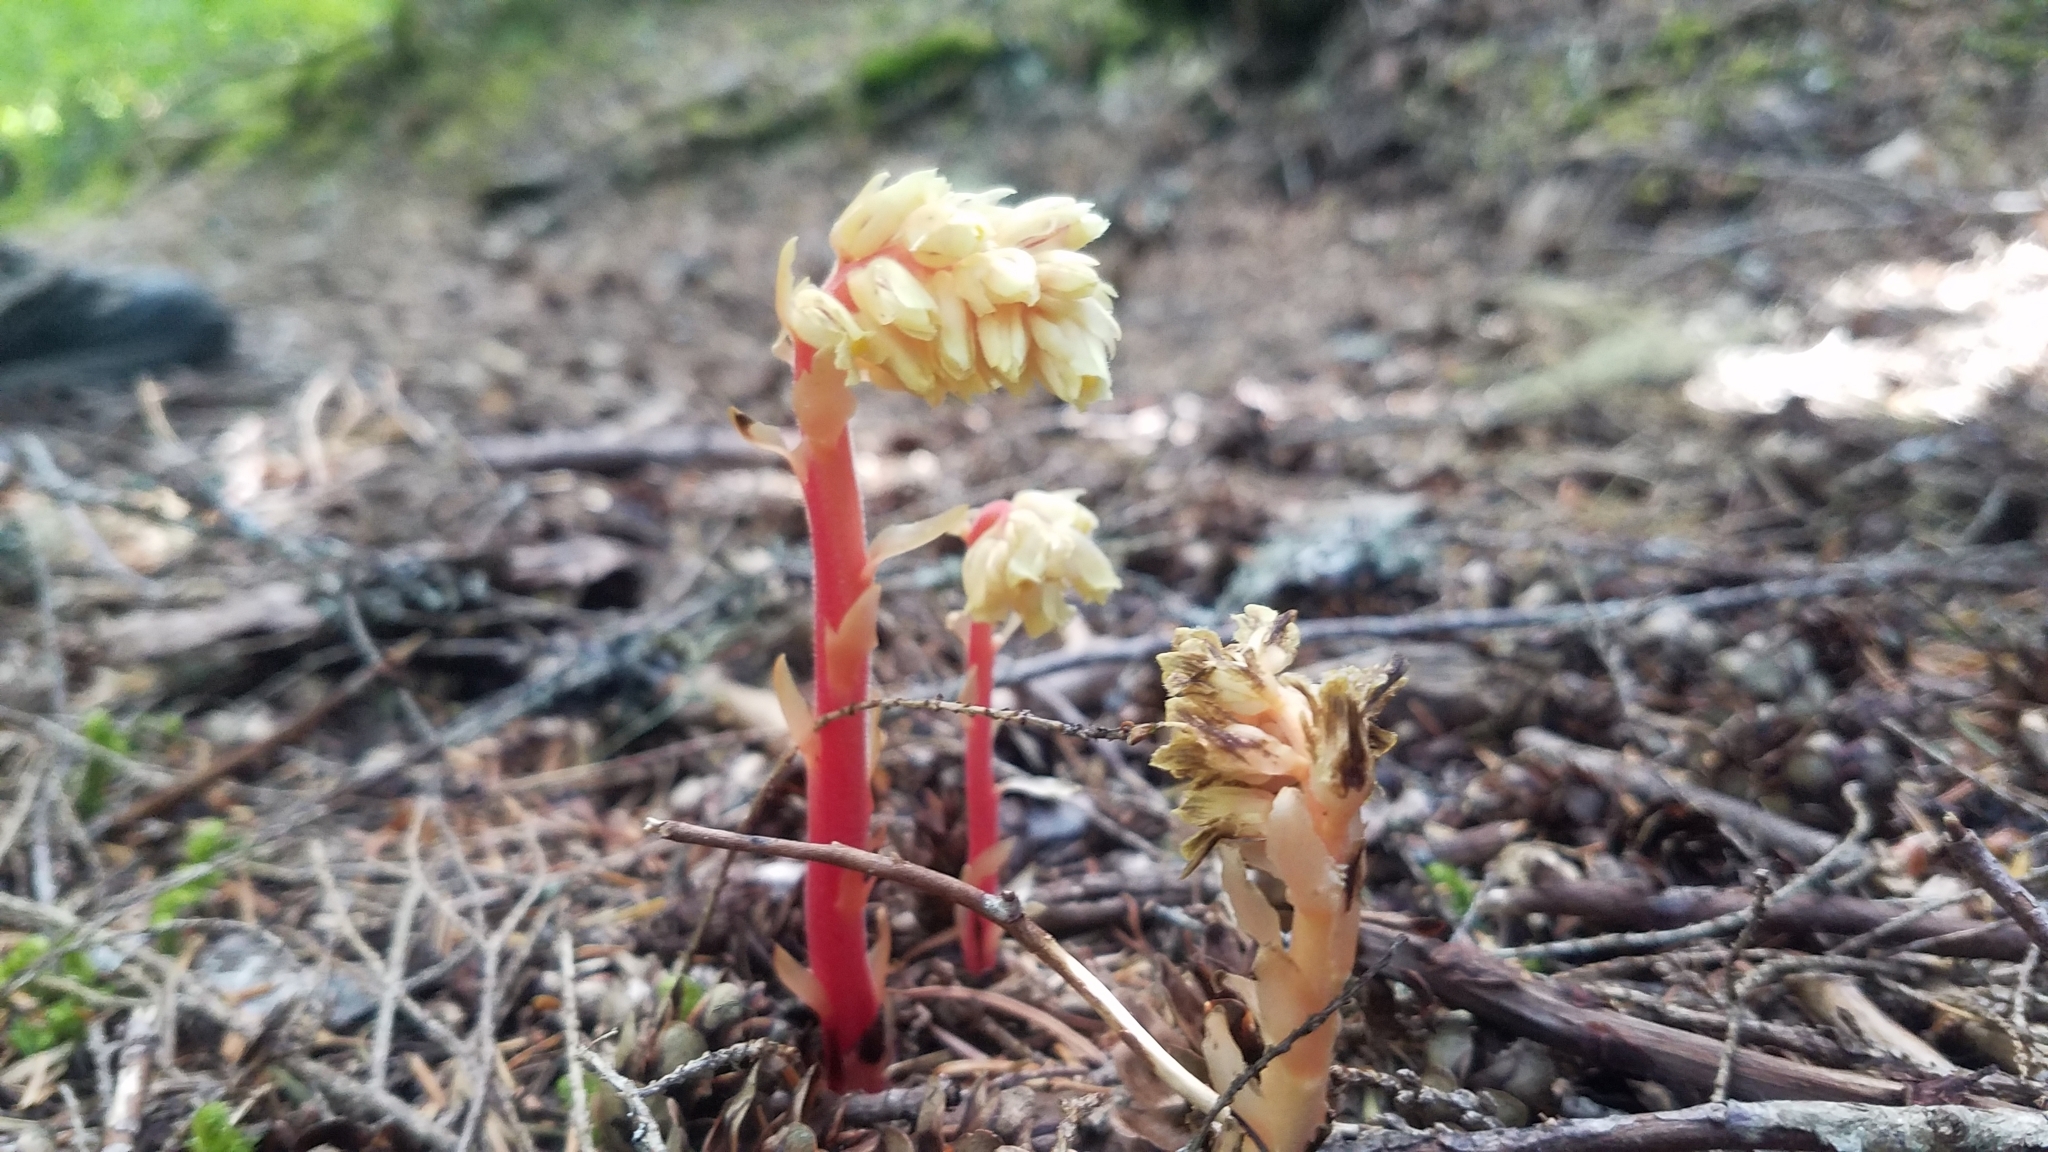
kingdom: Plantae
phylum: Tracheophyta
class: Magnoliopsida
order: Ericales
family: Ericaceae
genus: Hypopitys
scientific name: Hypopitys monotropa
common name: Yellow bird's-nest
